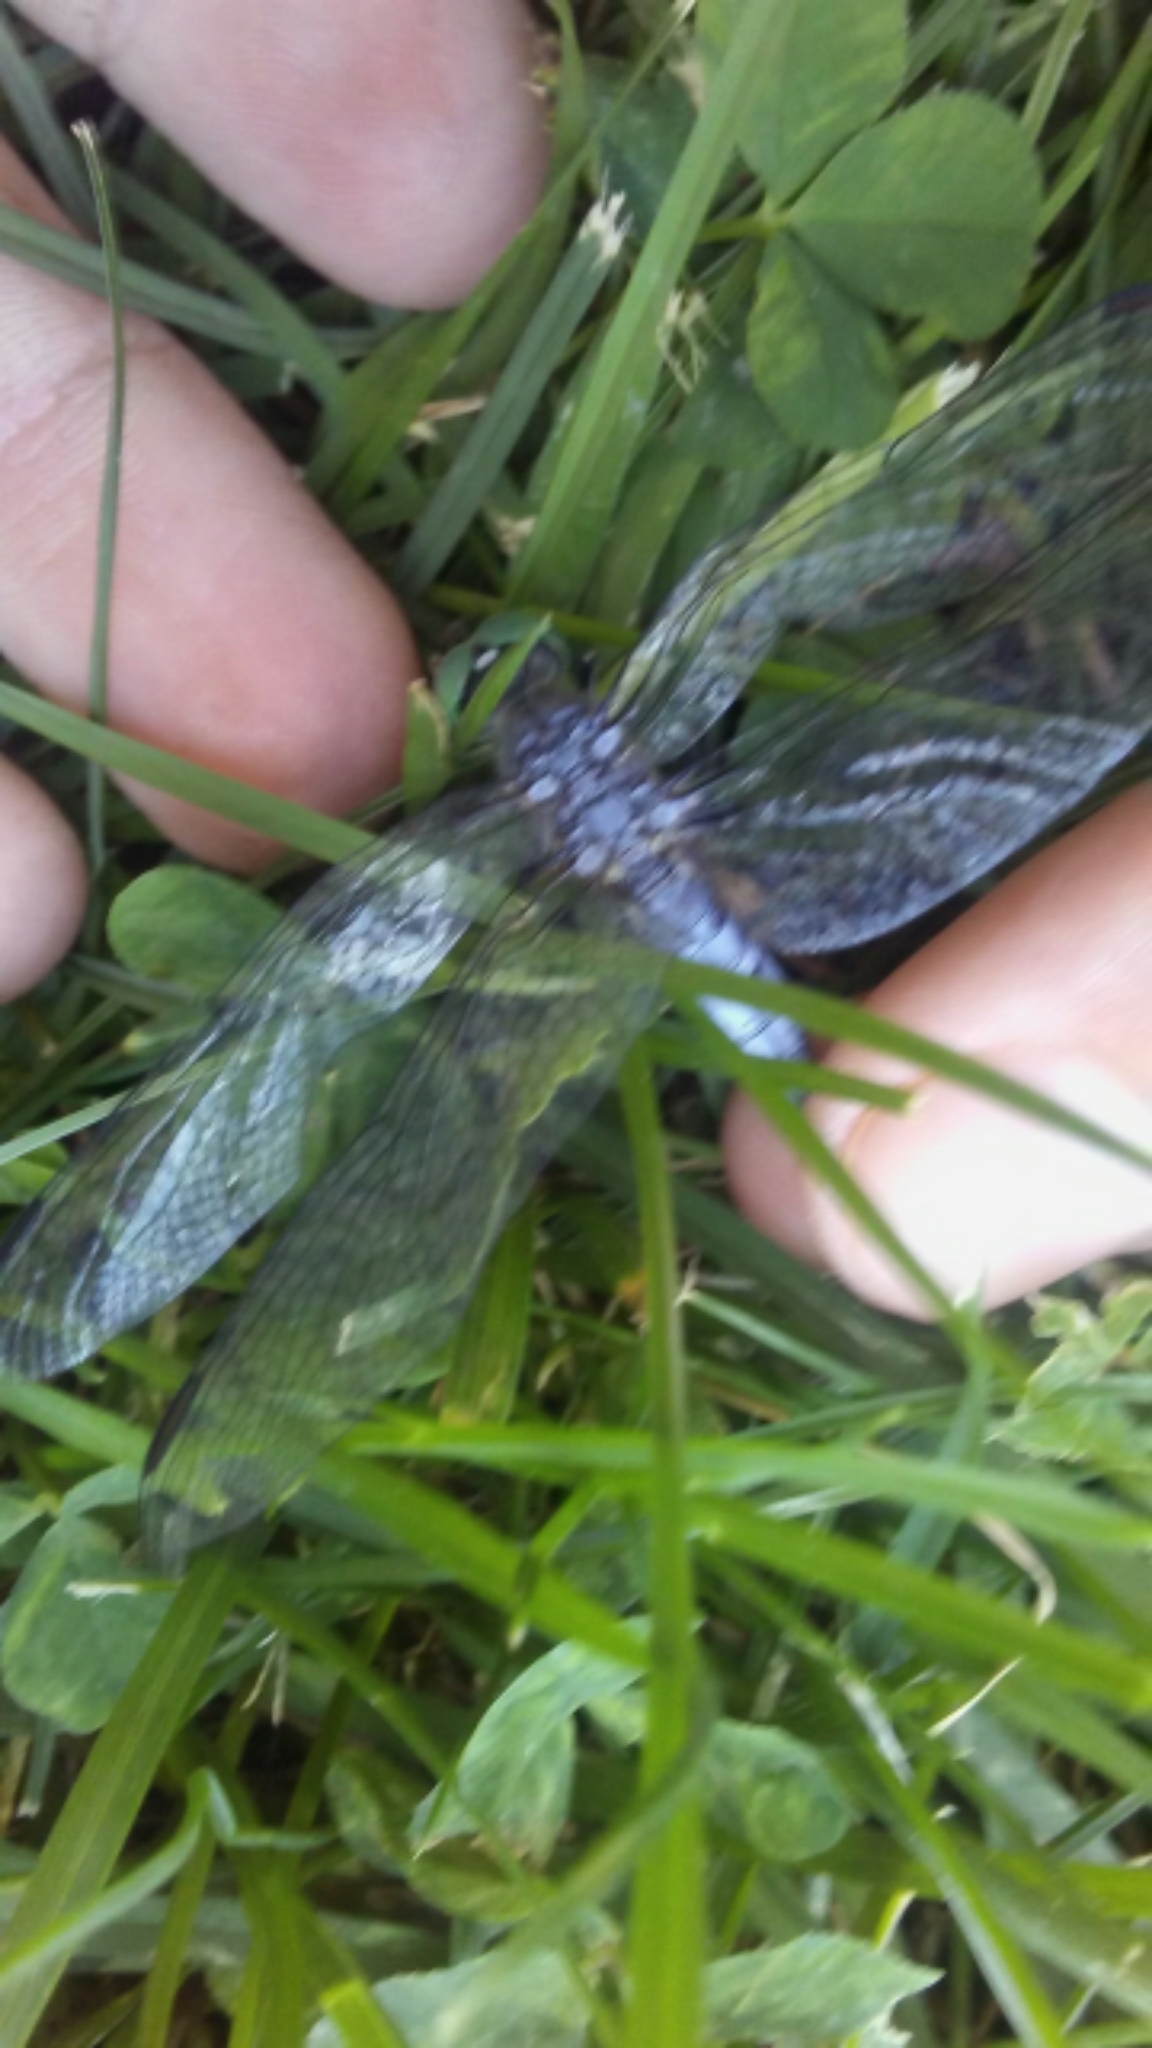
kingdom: Animalia
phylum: Arthropoda
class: Insecta
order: Odonata
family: Libellulidae
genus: Pachydiplax
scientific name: Pachydiplax longipennis
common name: Blue dasher
